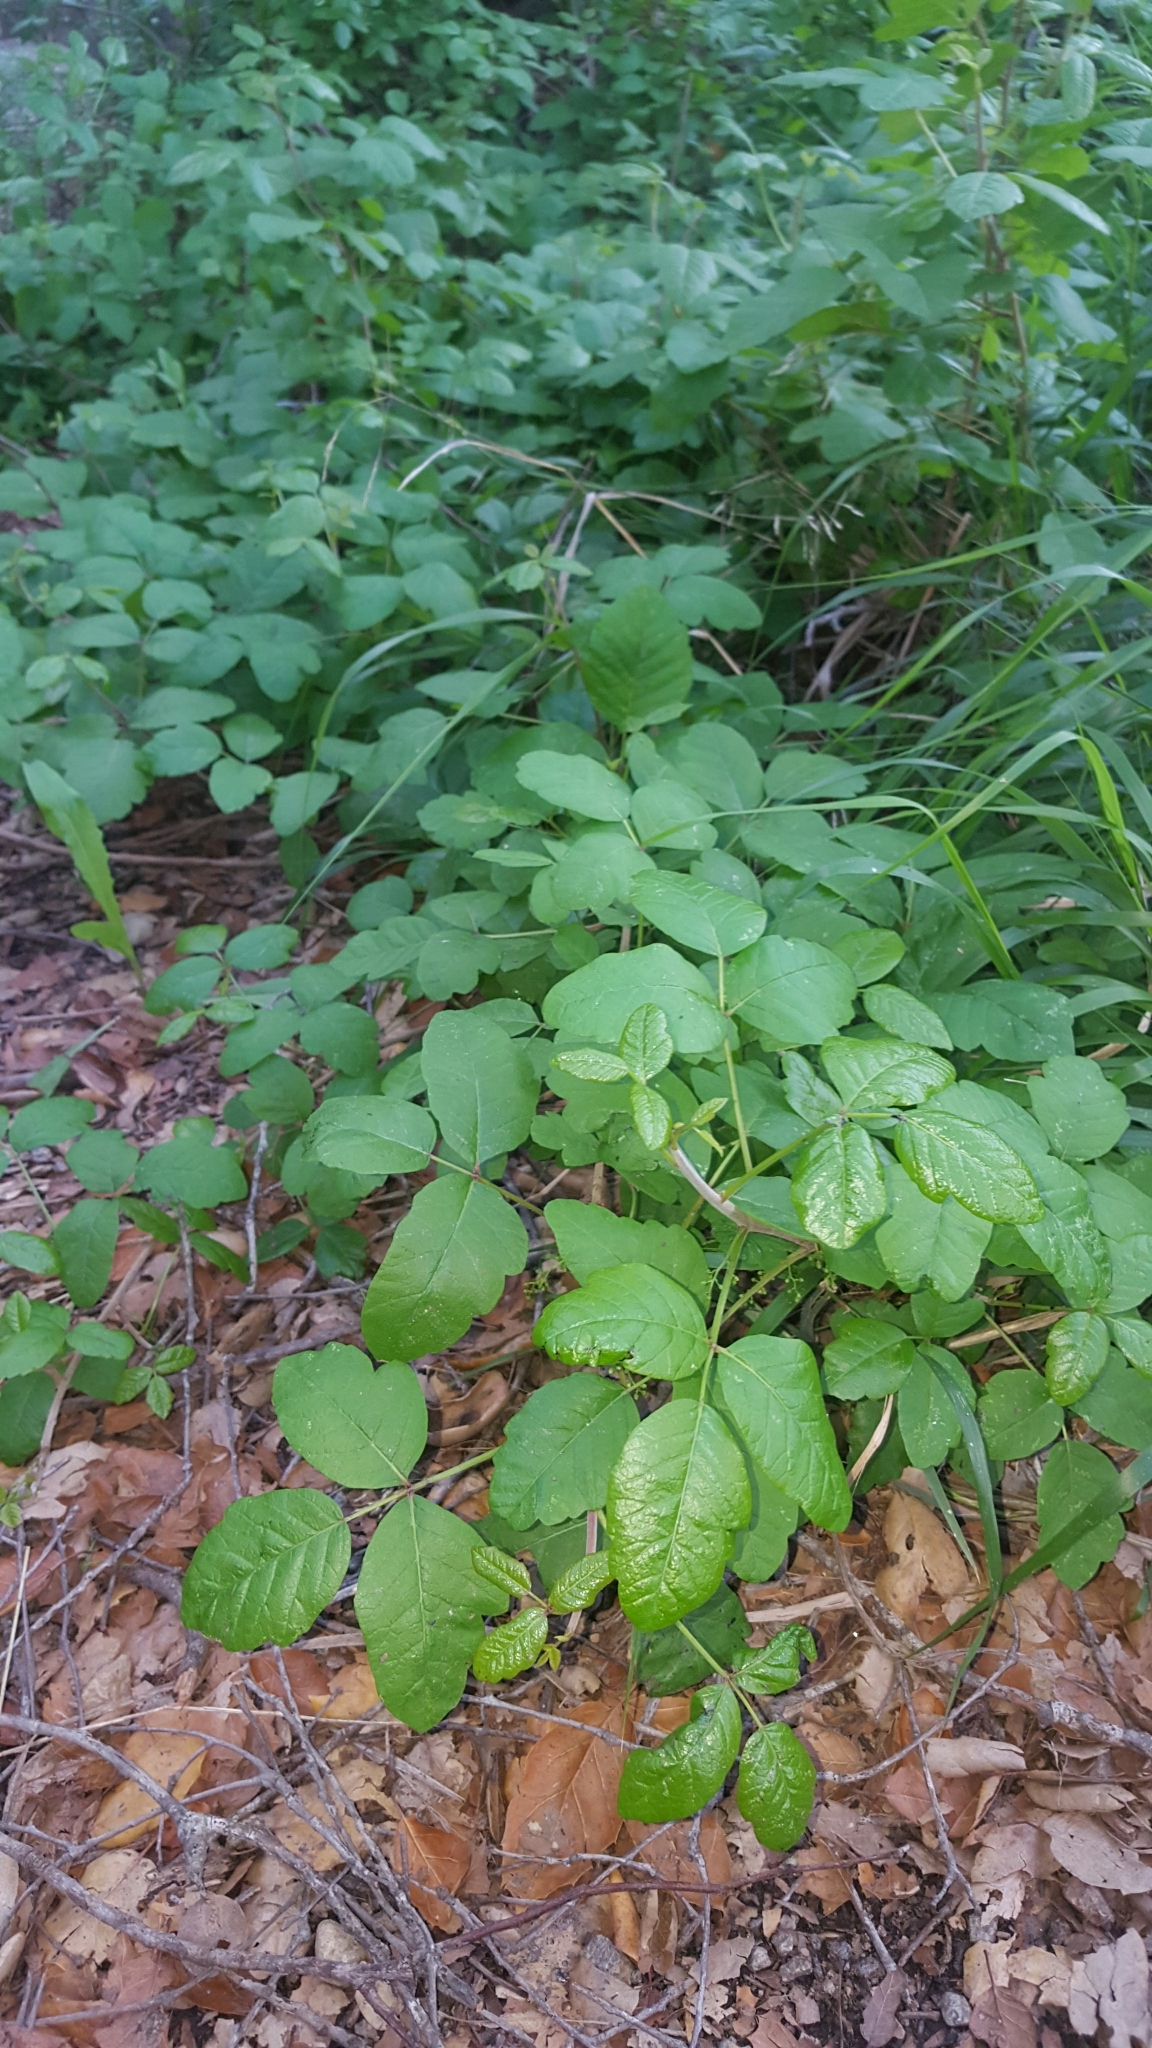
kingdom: Plantae
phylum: Tracheophyta
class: Magnoliopsida
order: Sapindales
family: Anacardiaceae
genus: Toxicodendron
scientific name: Toxicodendron diversilobum
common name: Pacific poison-oak
